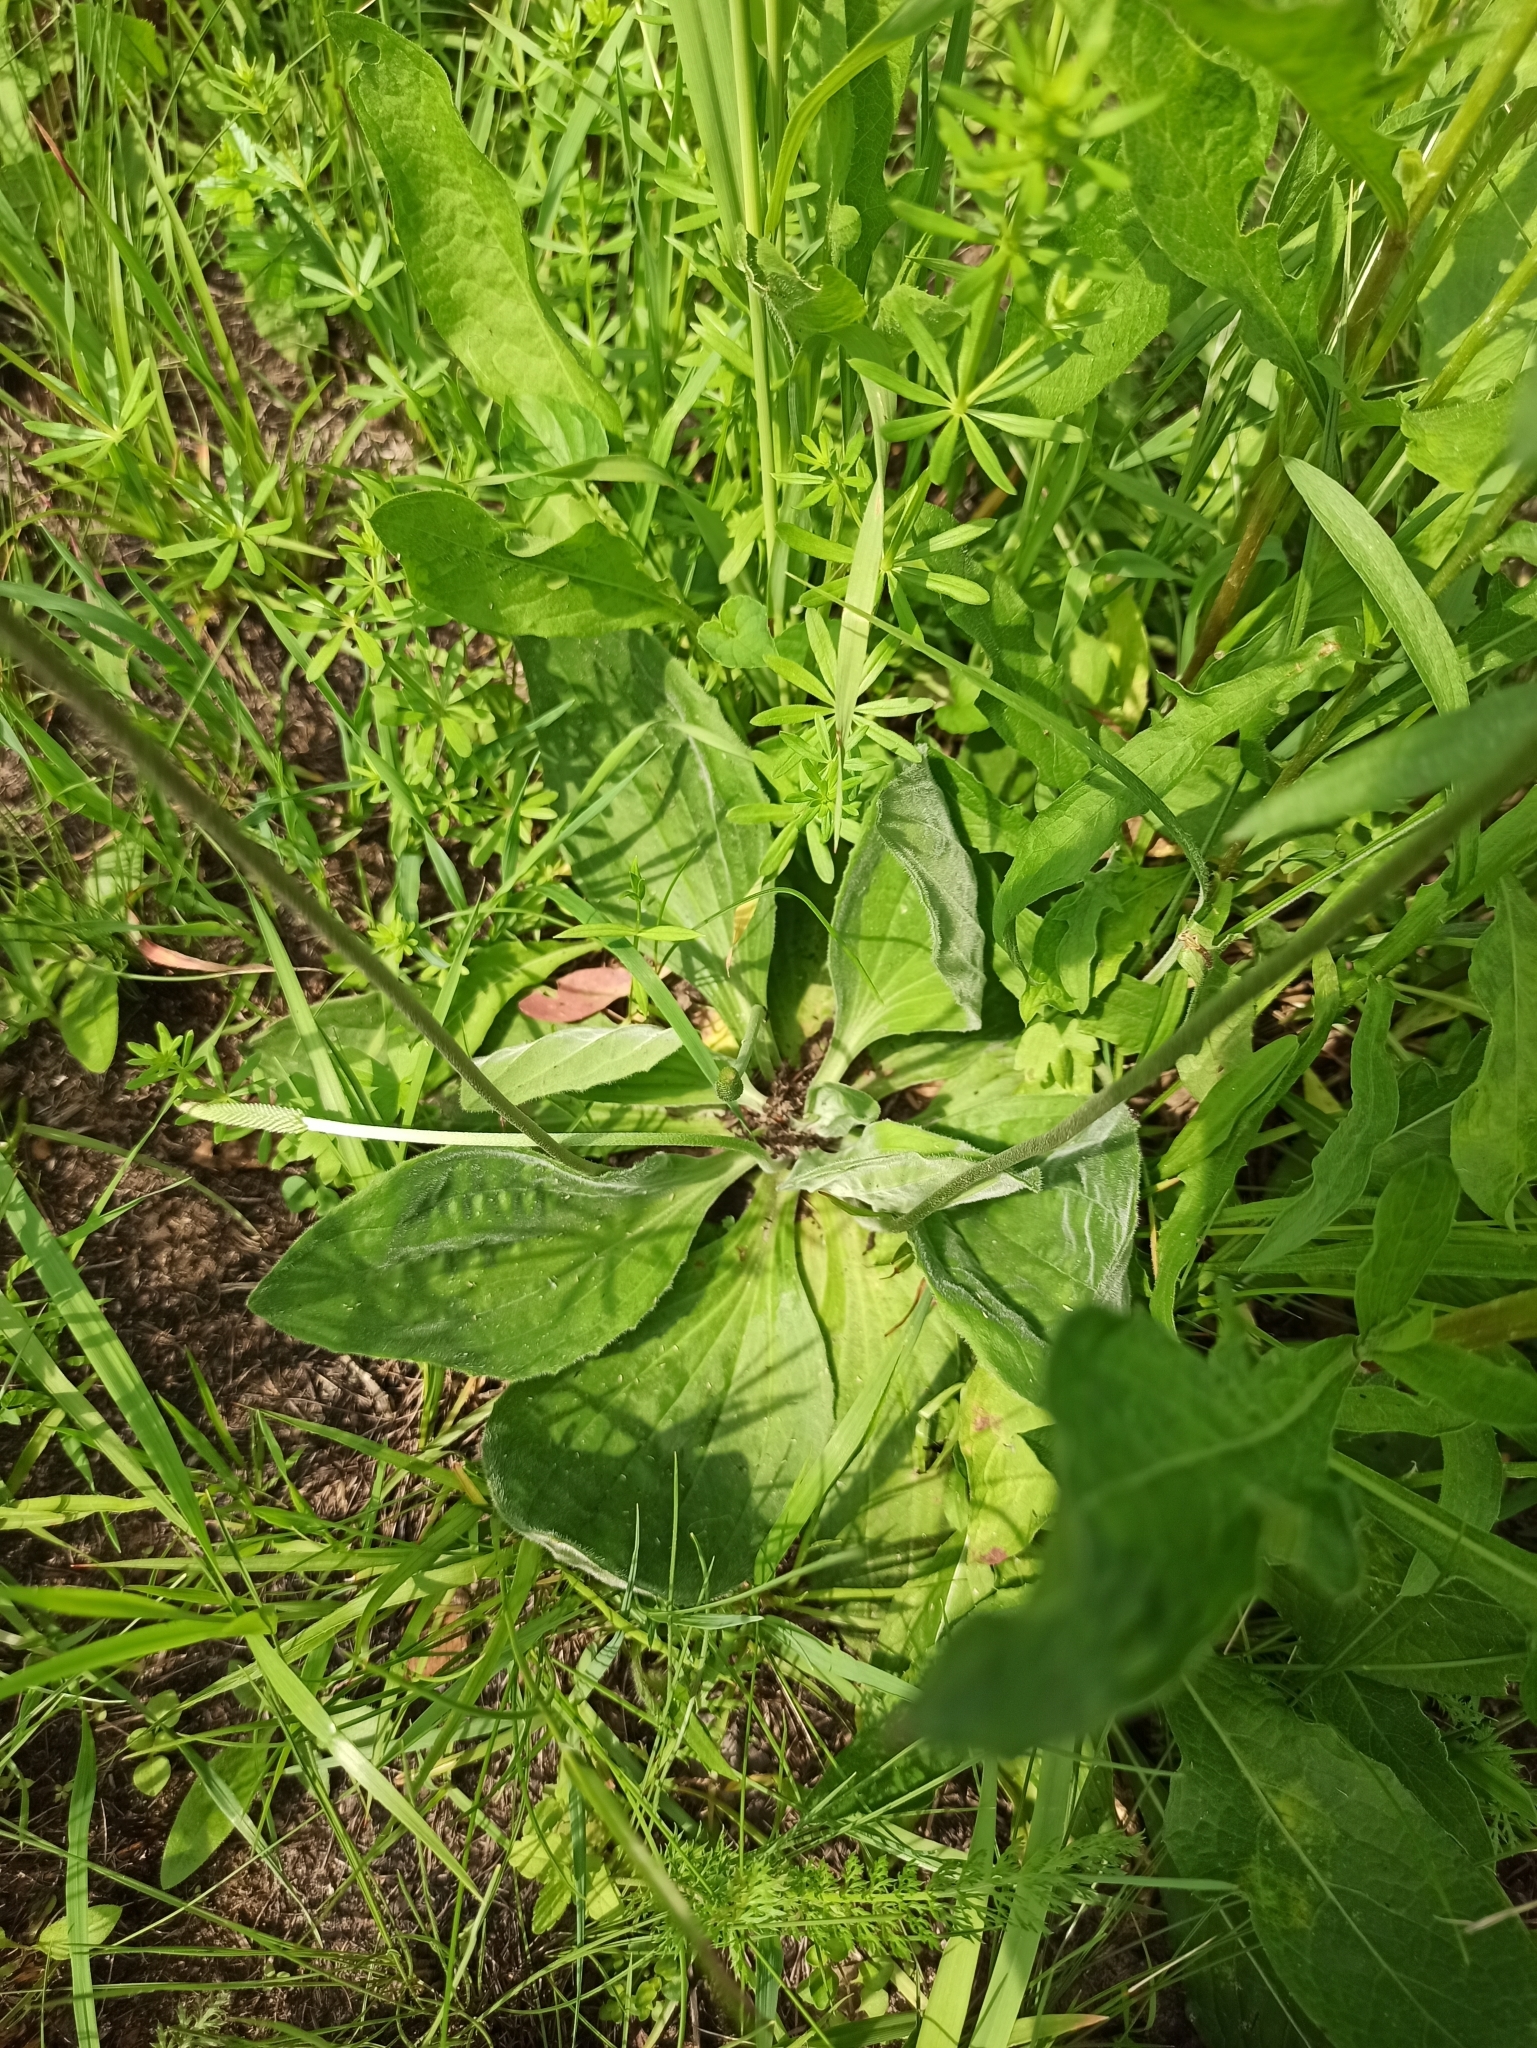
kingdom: Plantae
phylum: Tracheophyta
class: Magnoliopsida
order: Lamiales
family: Plantaginaceae
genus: Plantago
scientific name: Plantago media
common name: Hoary plantain
